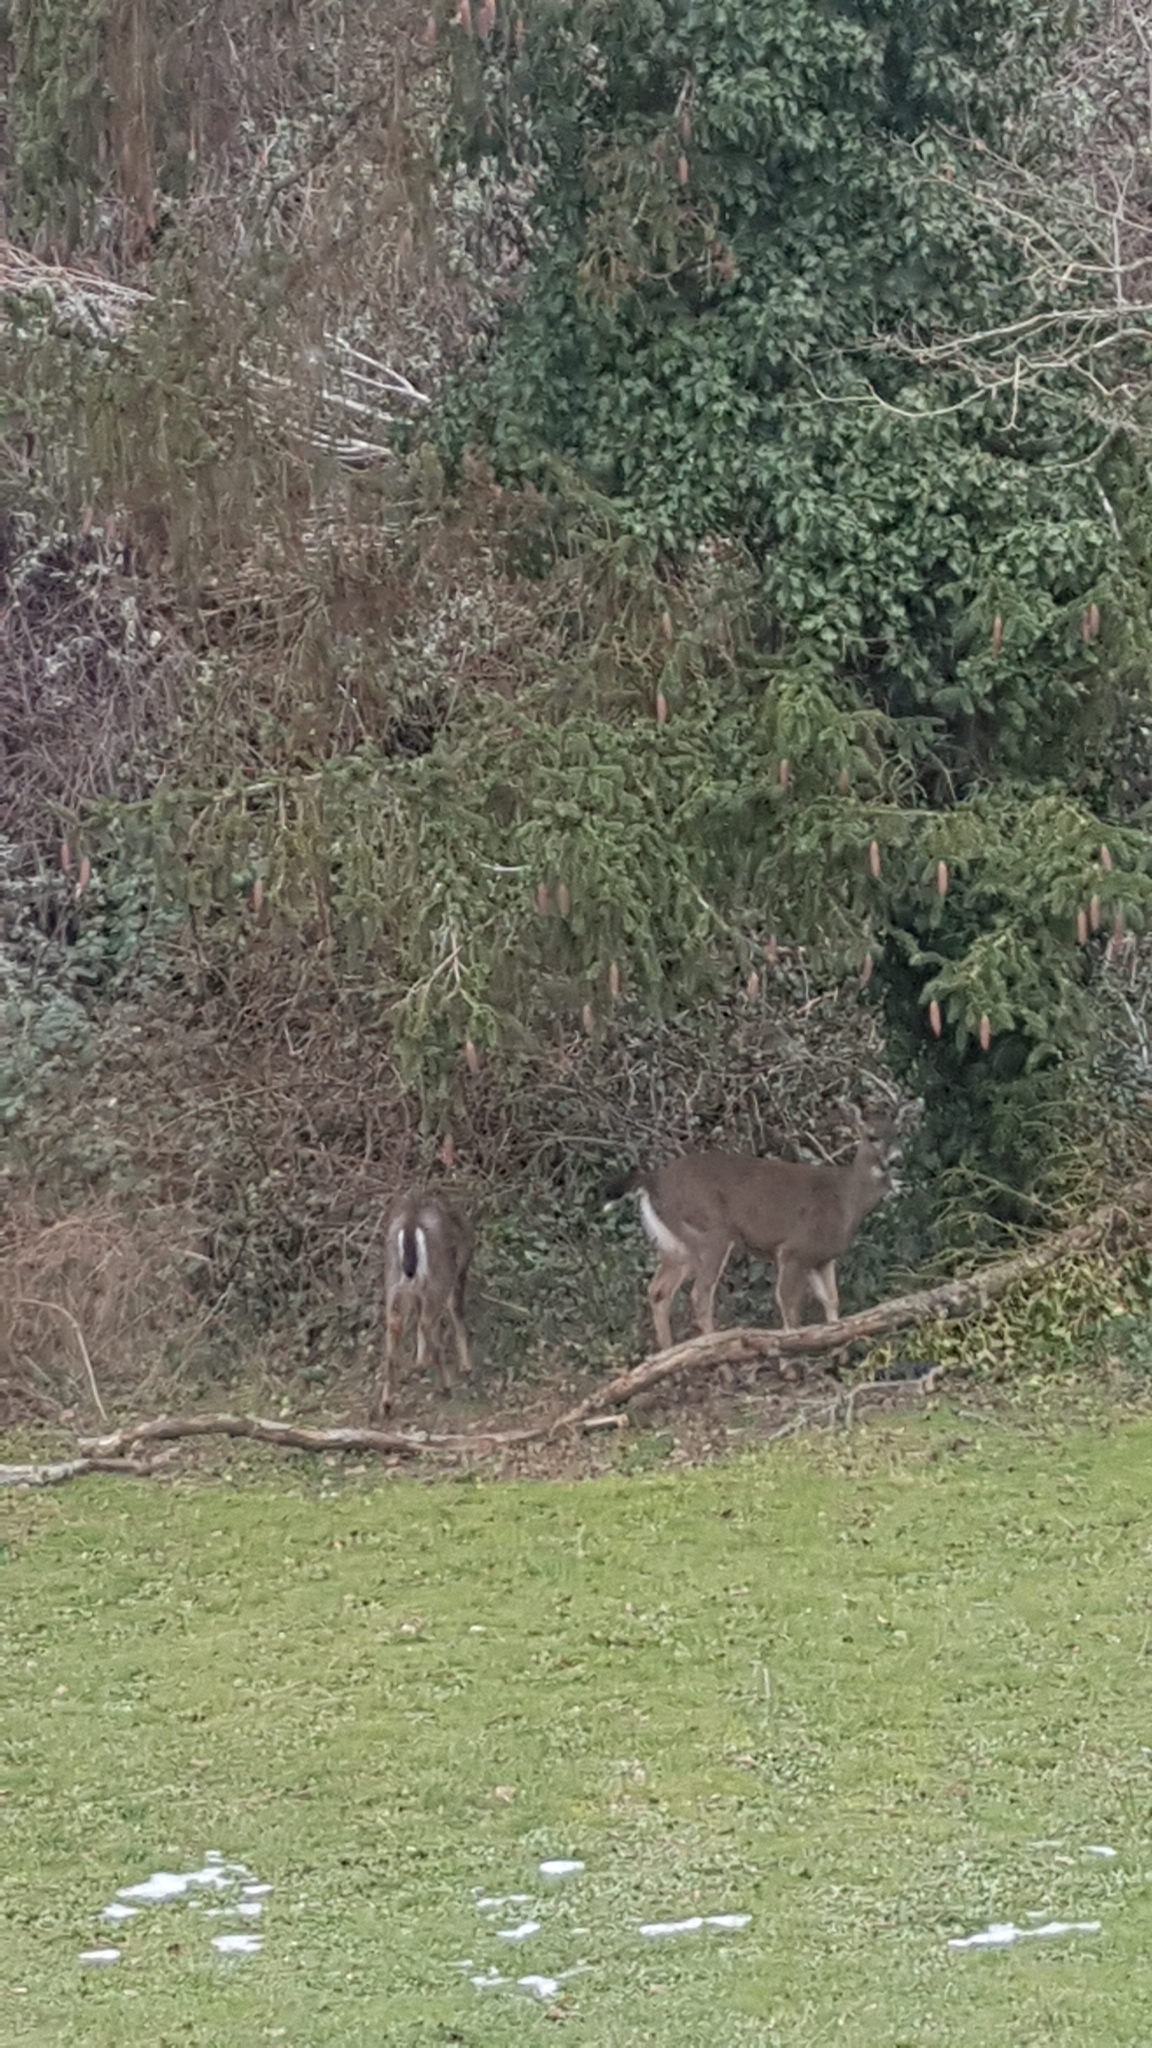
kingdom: Animalia
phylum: Chordata
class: Mammalia
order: Artiodactyla
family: Cervidae
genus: Odocoileus
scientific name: Odocoileus hemionus
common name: Mule deer
